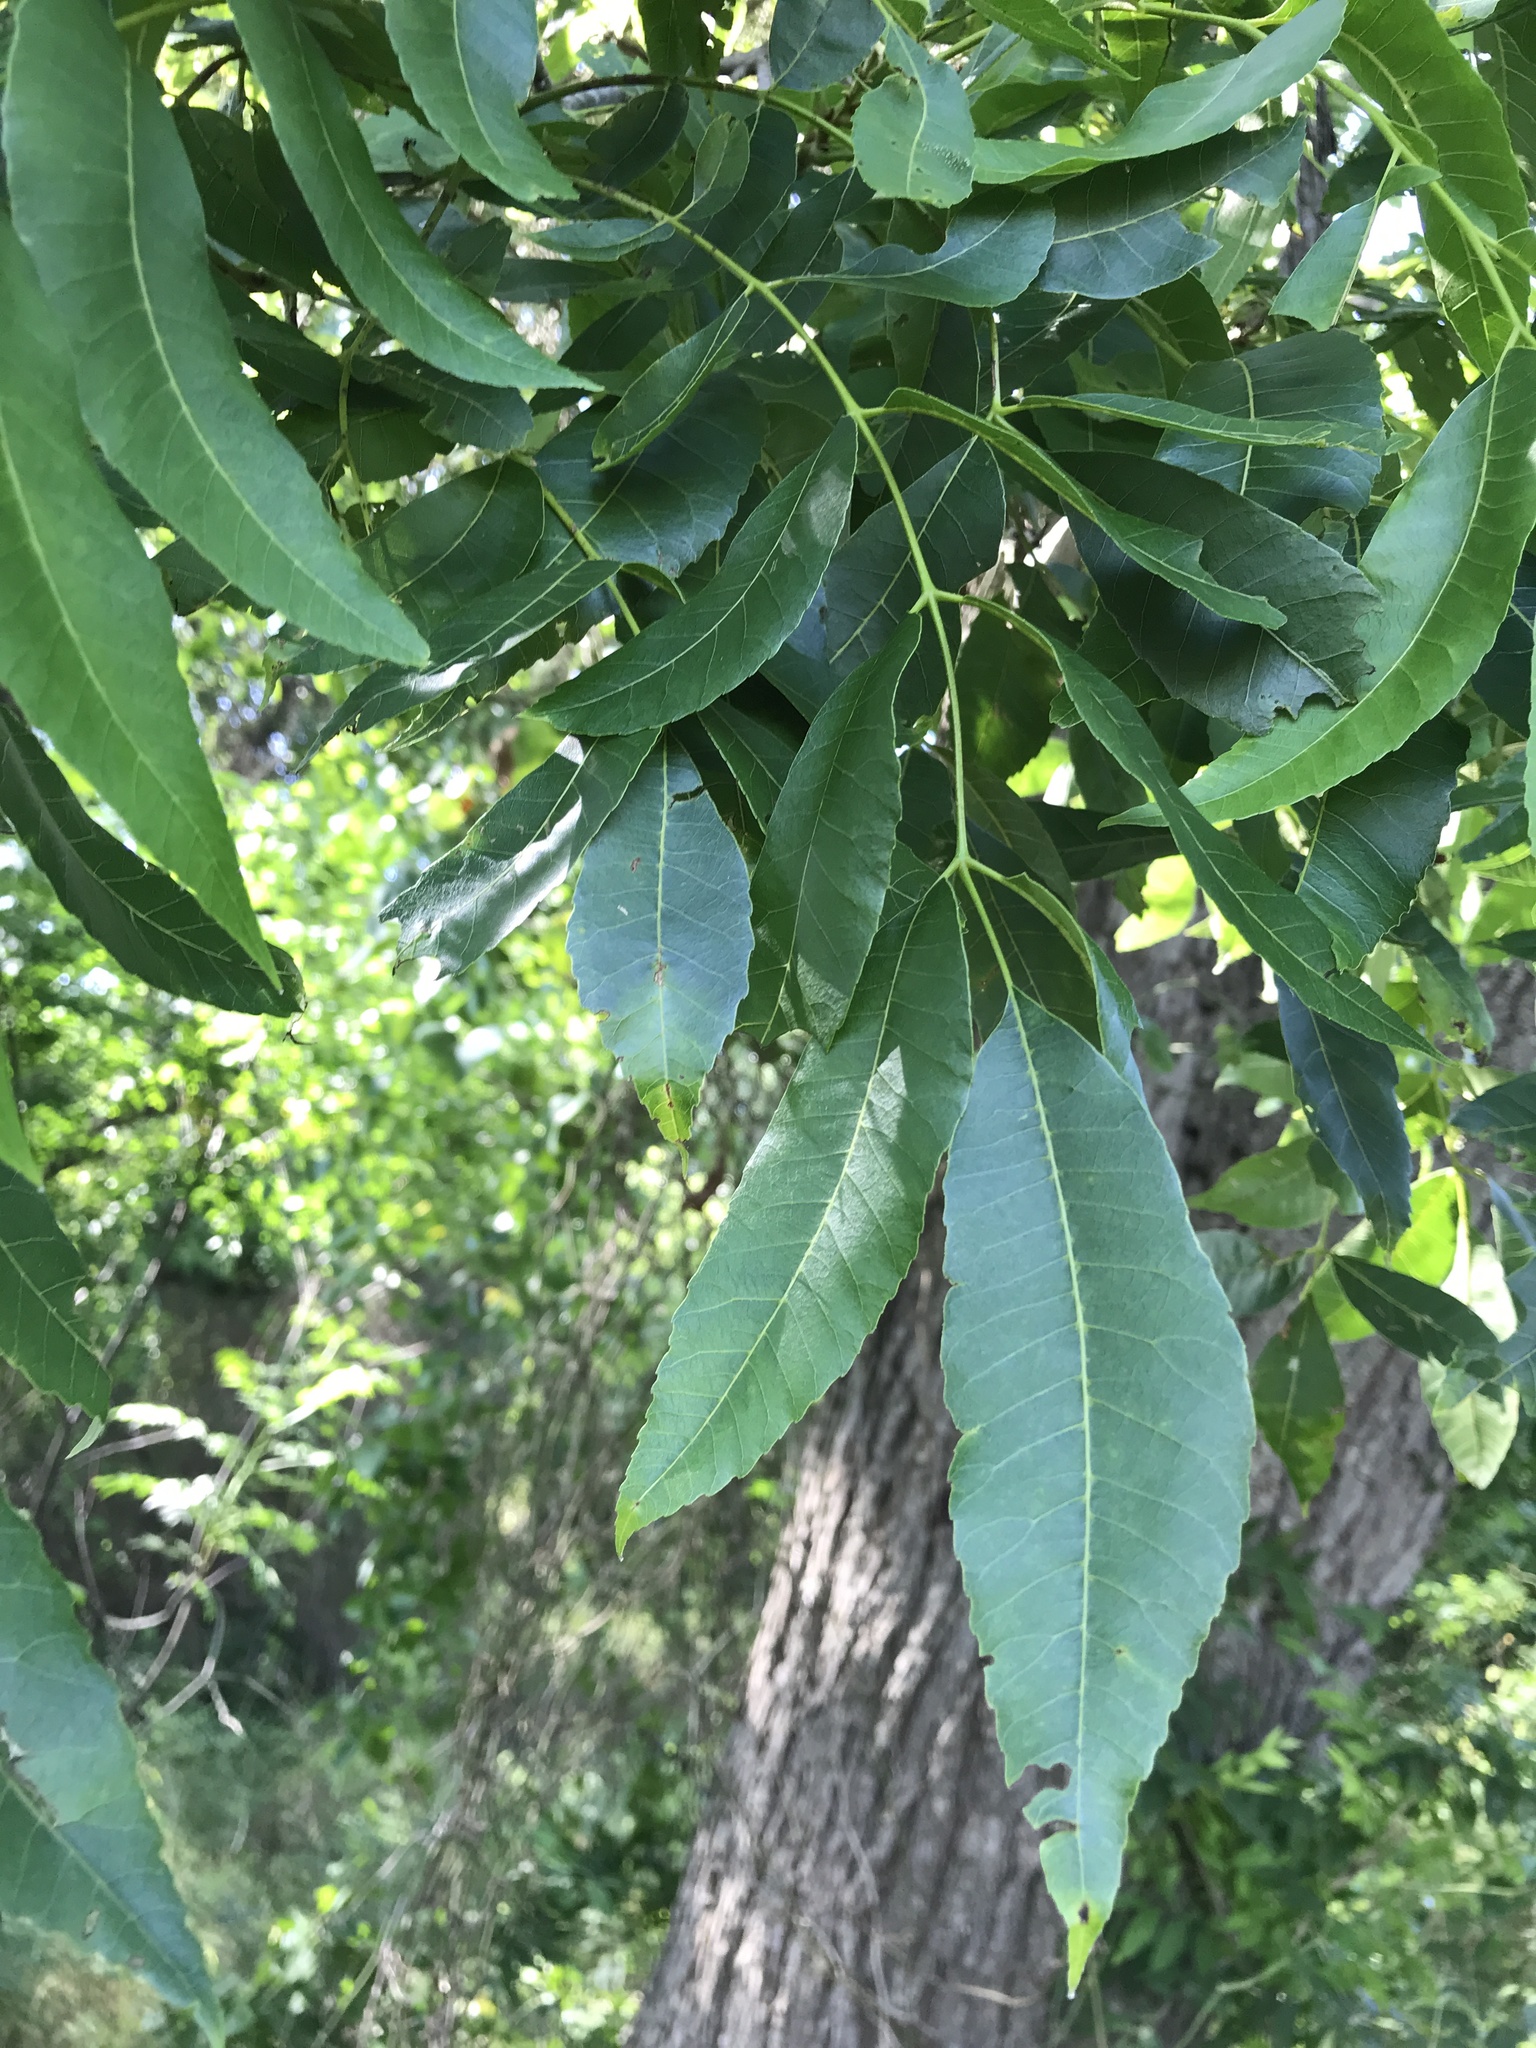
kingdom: Plantae
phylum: Tracheophyta
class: Magnoliopsida
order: Fagales
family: Juglandaceae
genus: Carya
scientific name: Carya illinoinensis
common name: Pecan
